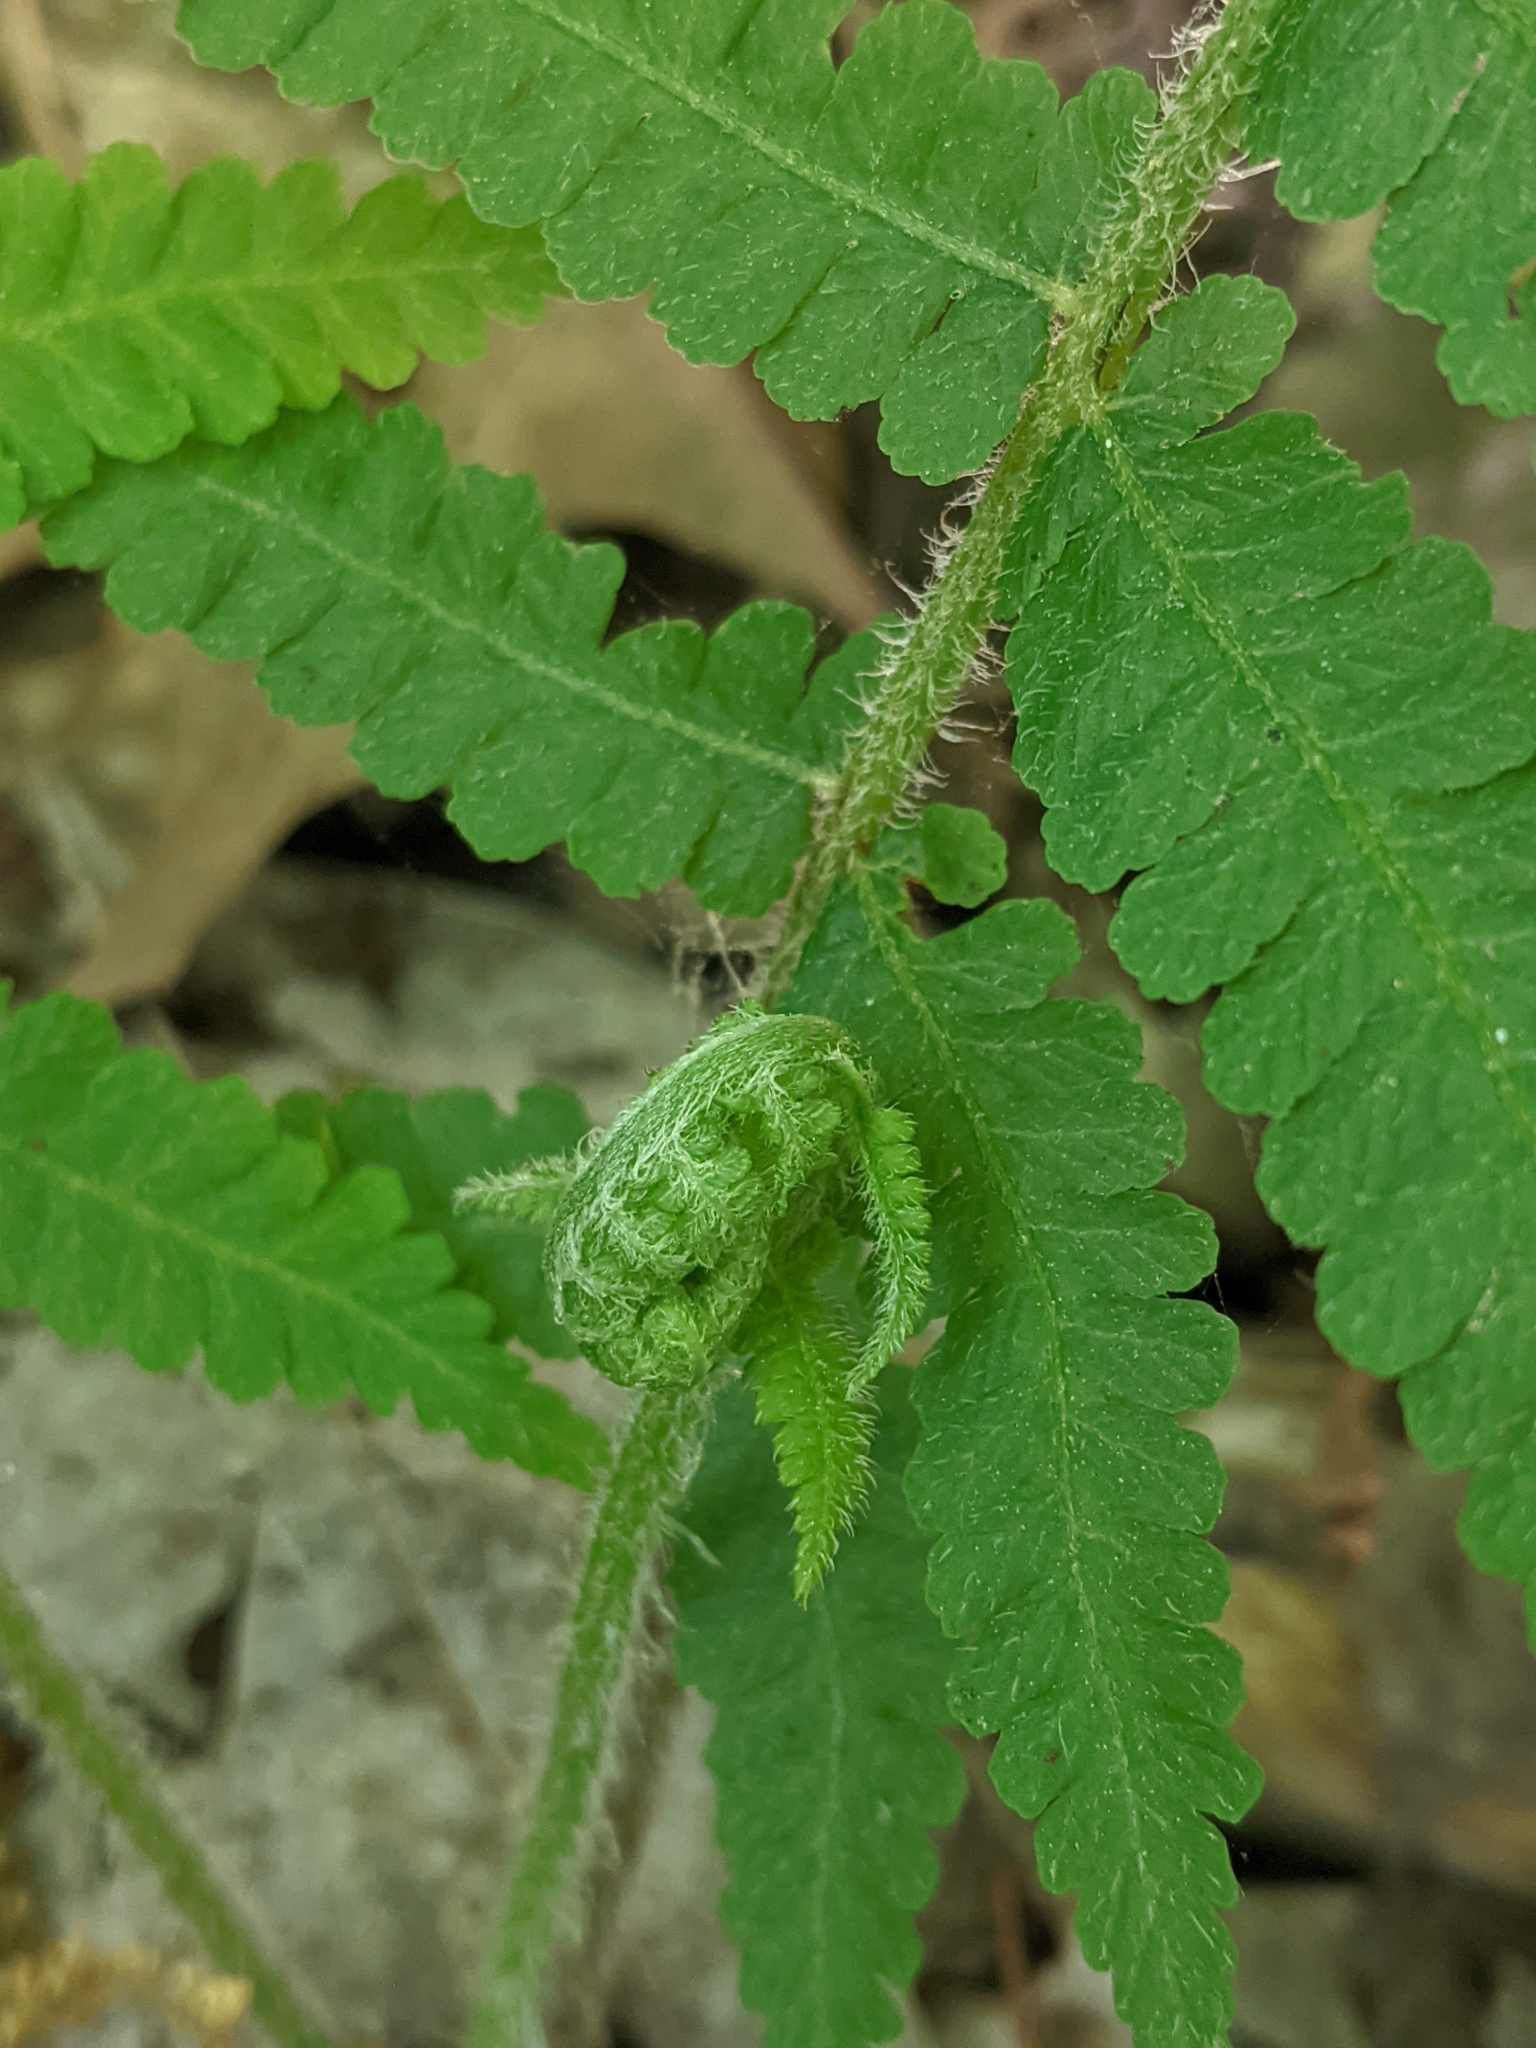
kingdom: Plantae
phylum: Tracheophyta
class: Polypodiopsida
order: Polypodiales
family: Athyriaceae
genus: Deparia
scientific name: Deparia acrostichoides
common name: Silver false spleenwort
